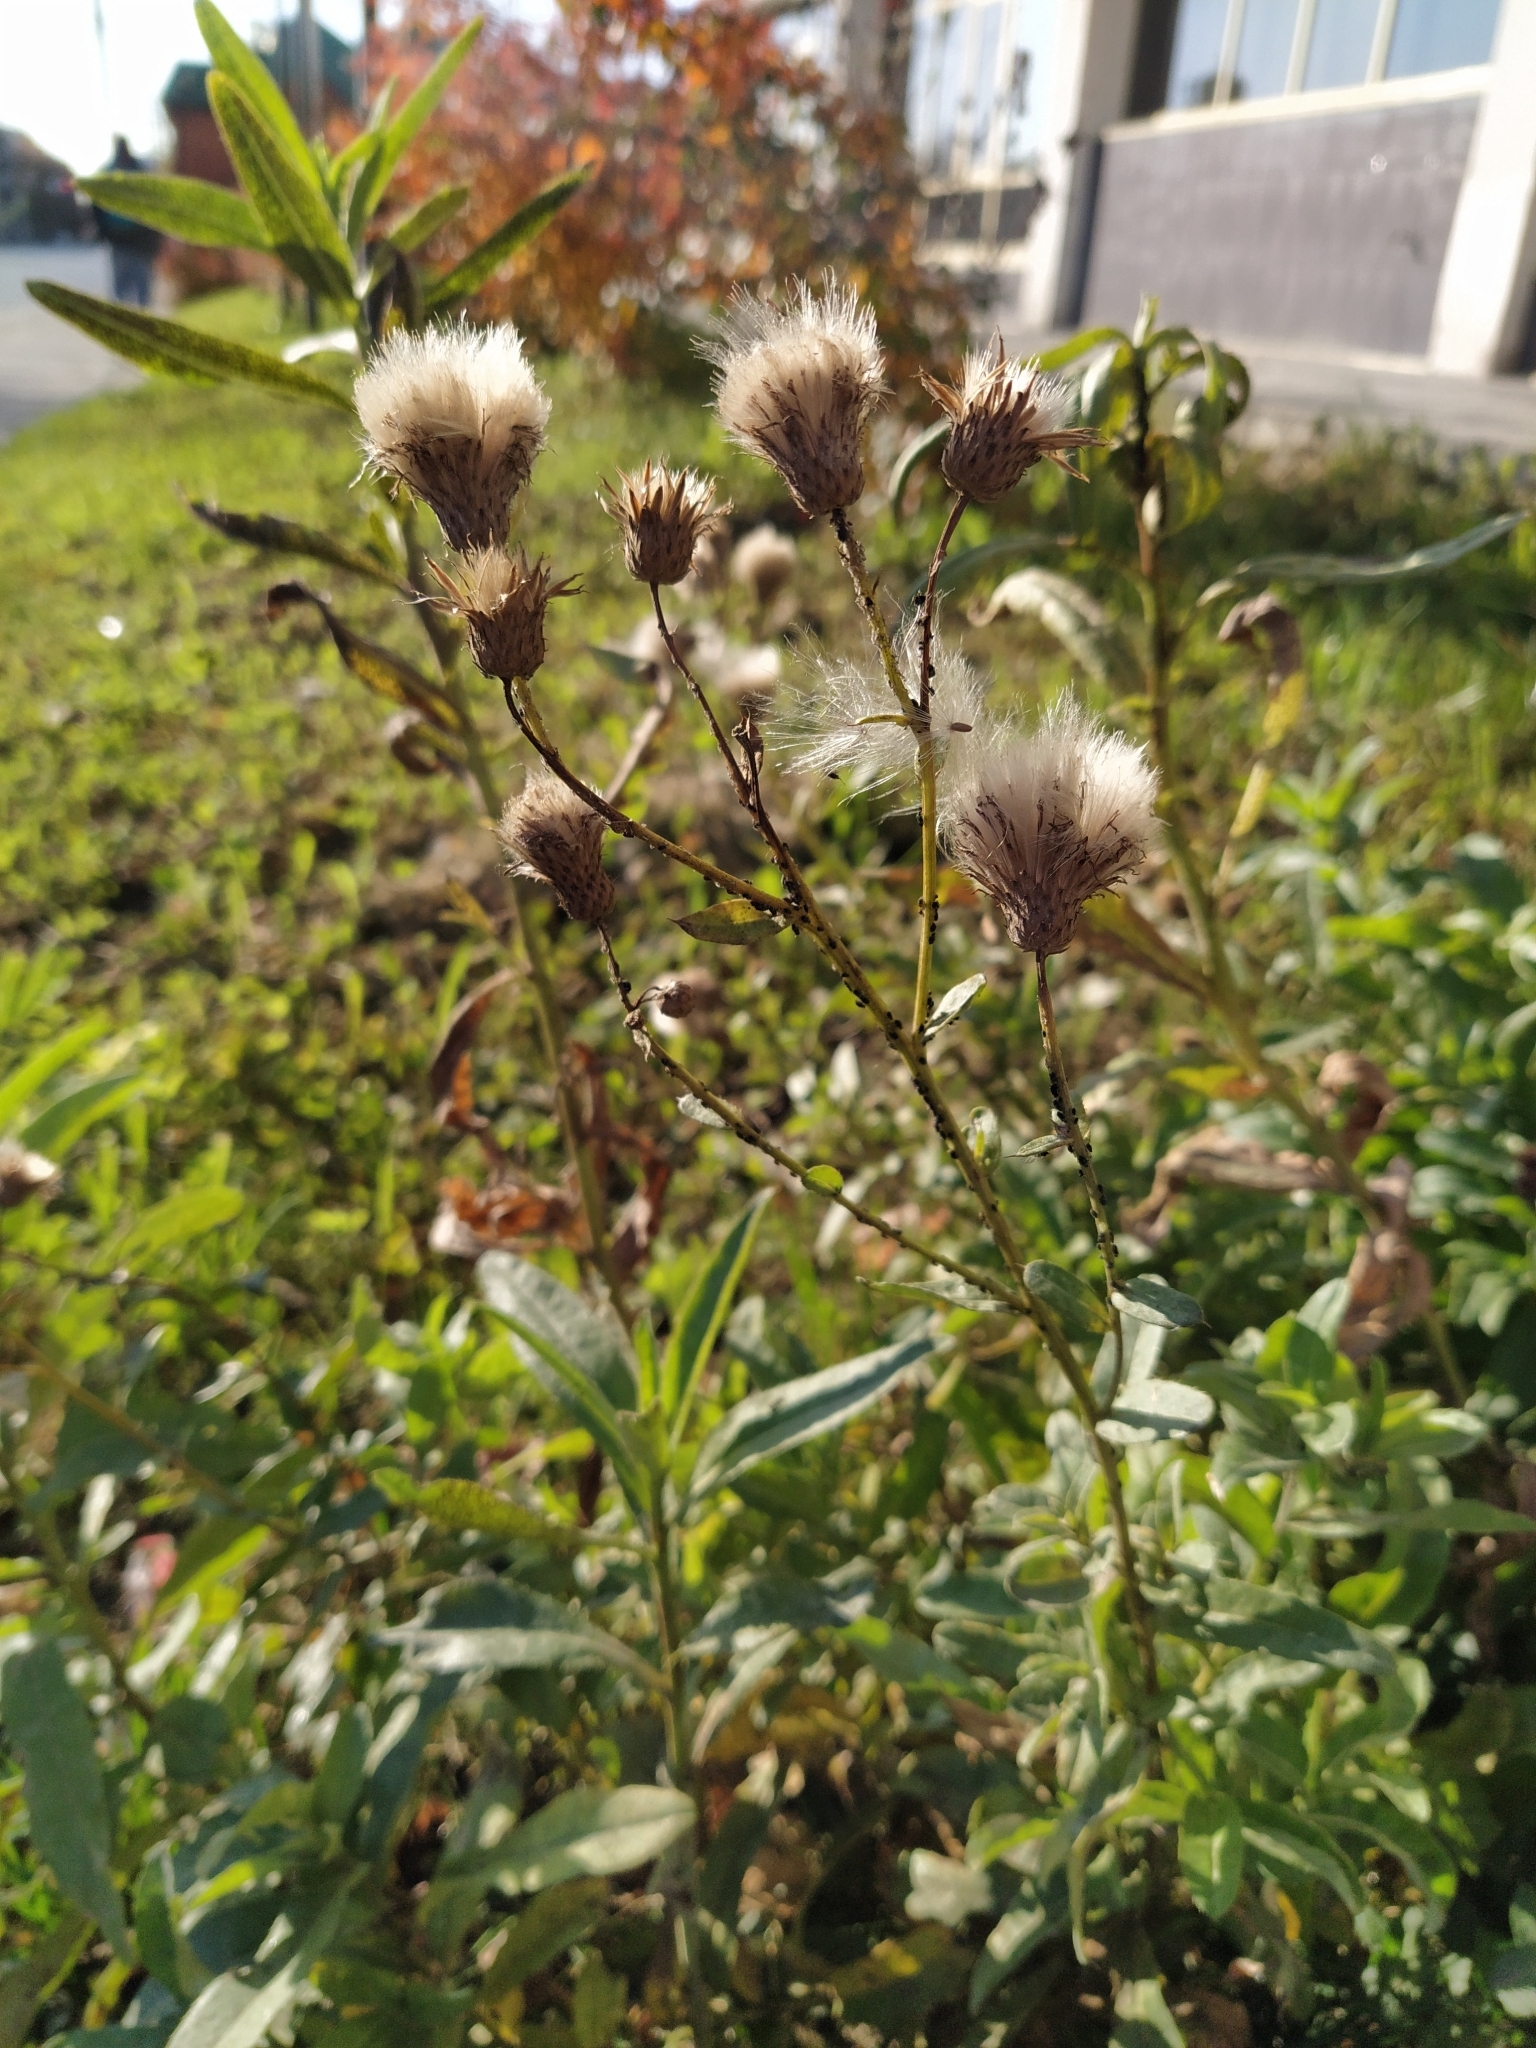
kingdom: Plantae
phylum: Tracheophyta
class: Magnoliopsida
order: Asterales
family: Asteraceae
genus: Cirsium
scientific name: Cirsium arvense
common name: Creeping thistle
